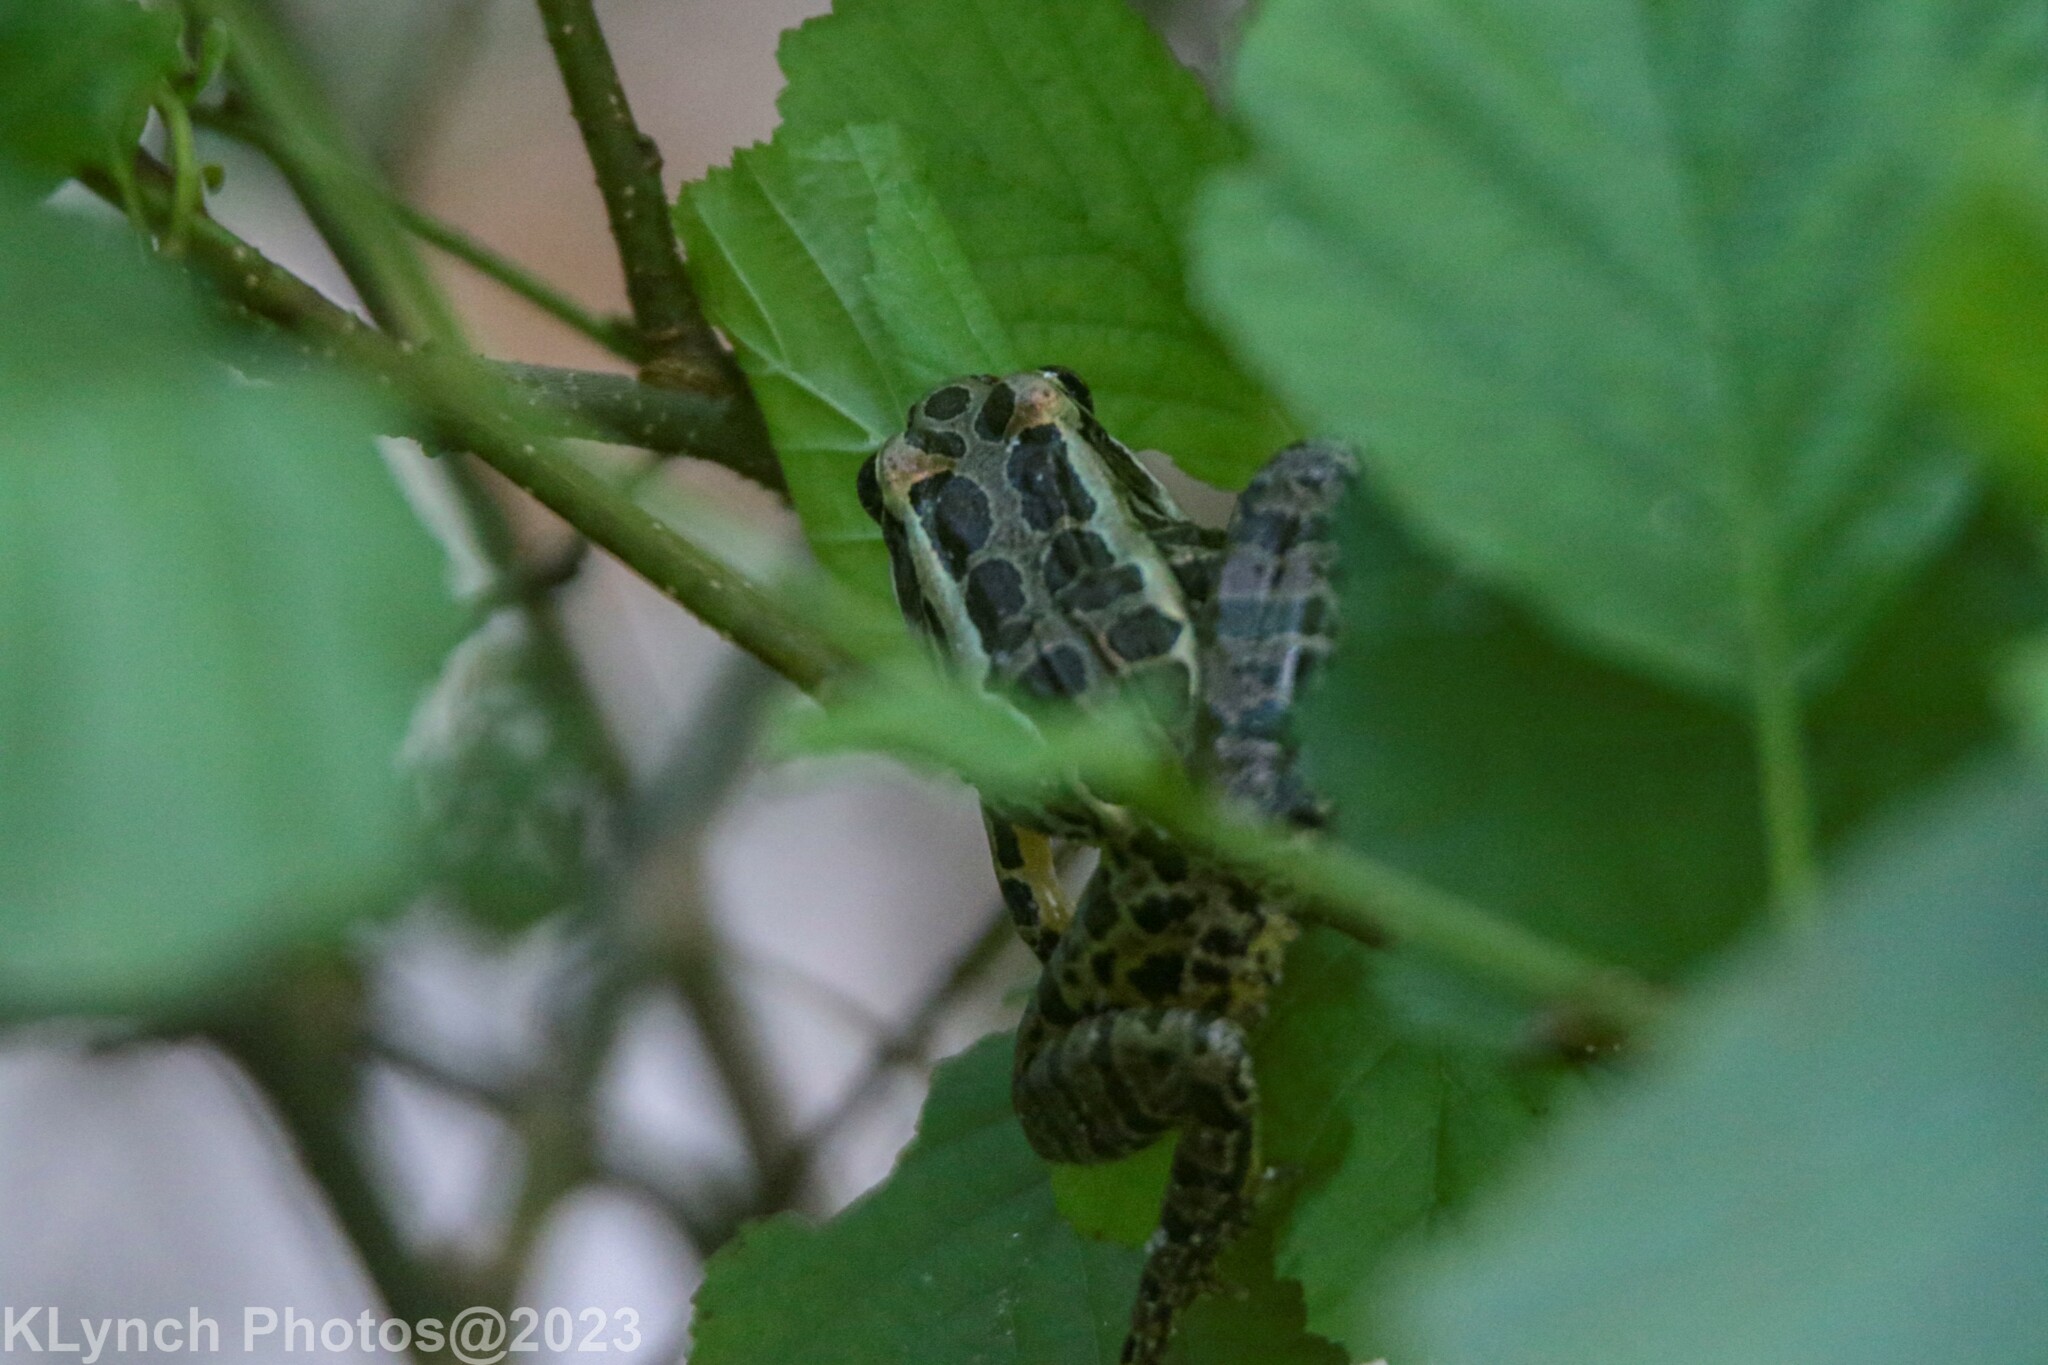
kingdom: Animalia
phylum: Chordata
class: Amphibia
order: Anura
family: Ranidae
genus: Lithobates
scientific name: Lithobates palustris
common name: Pickerel frog
